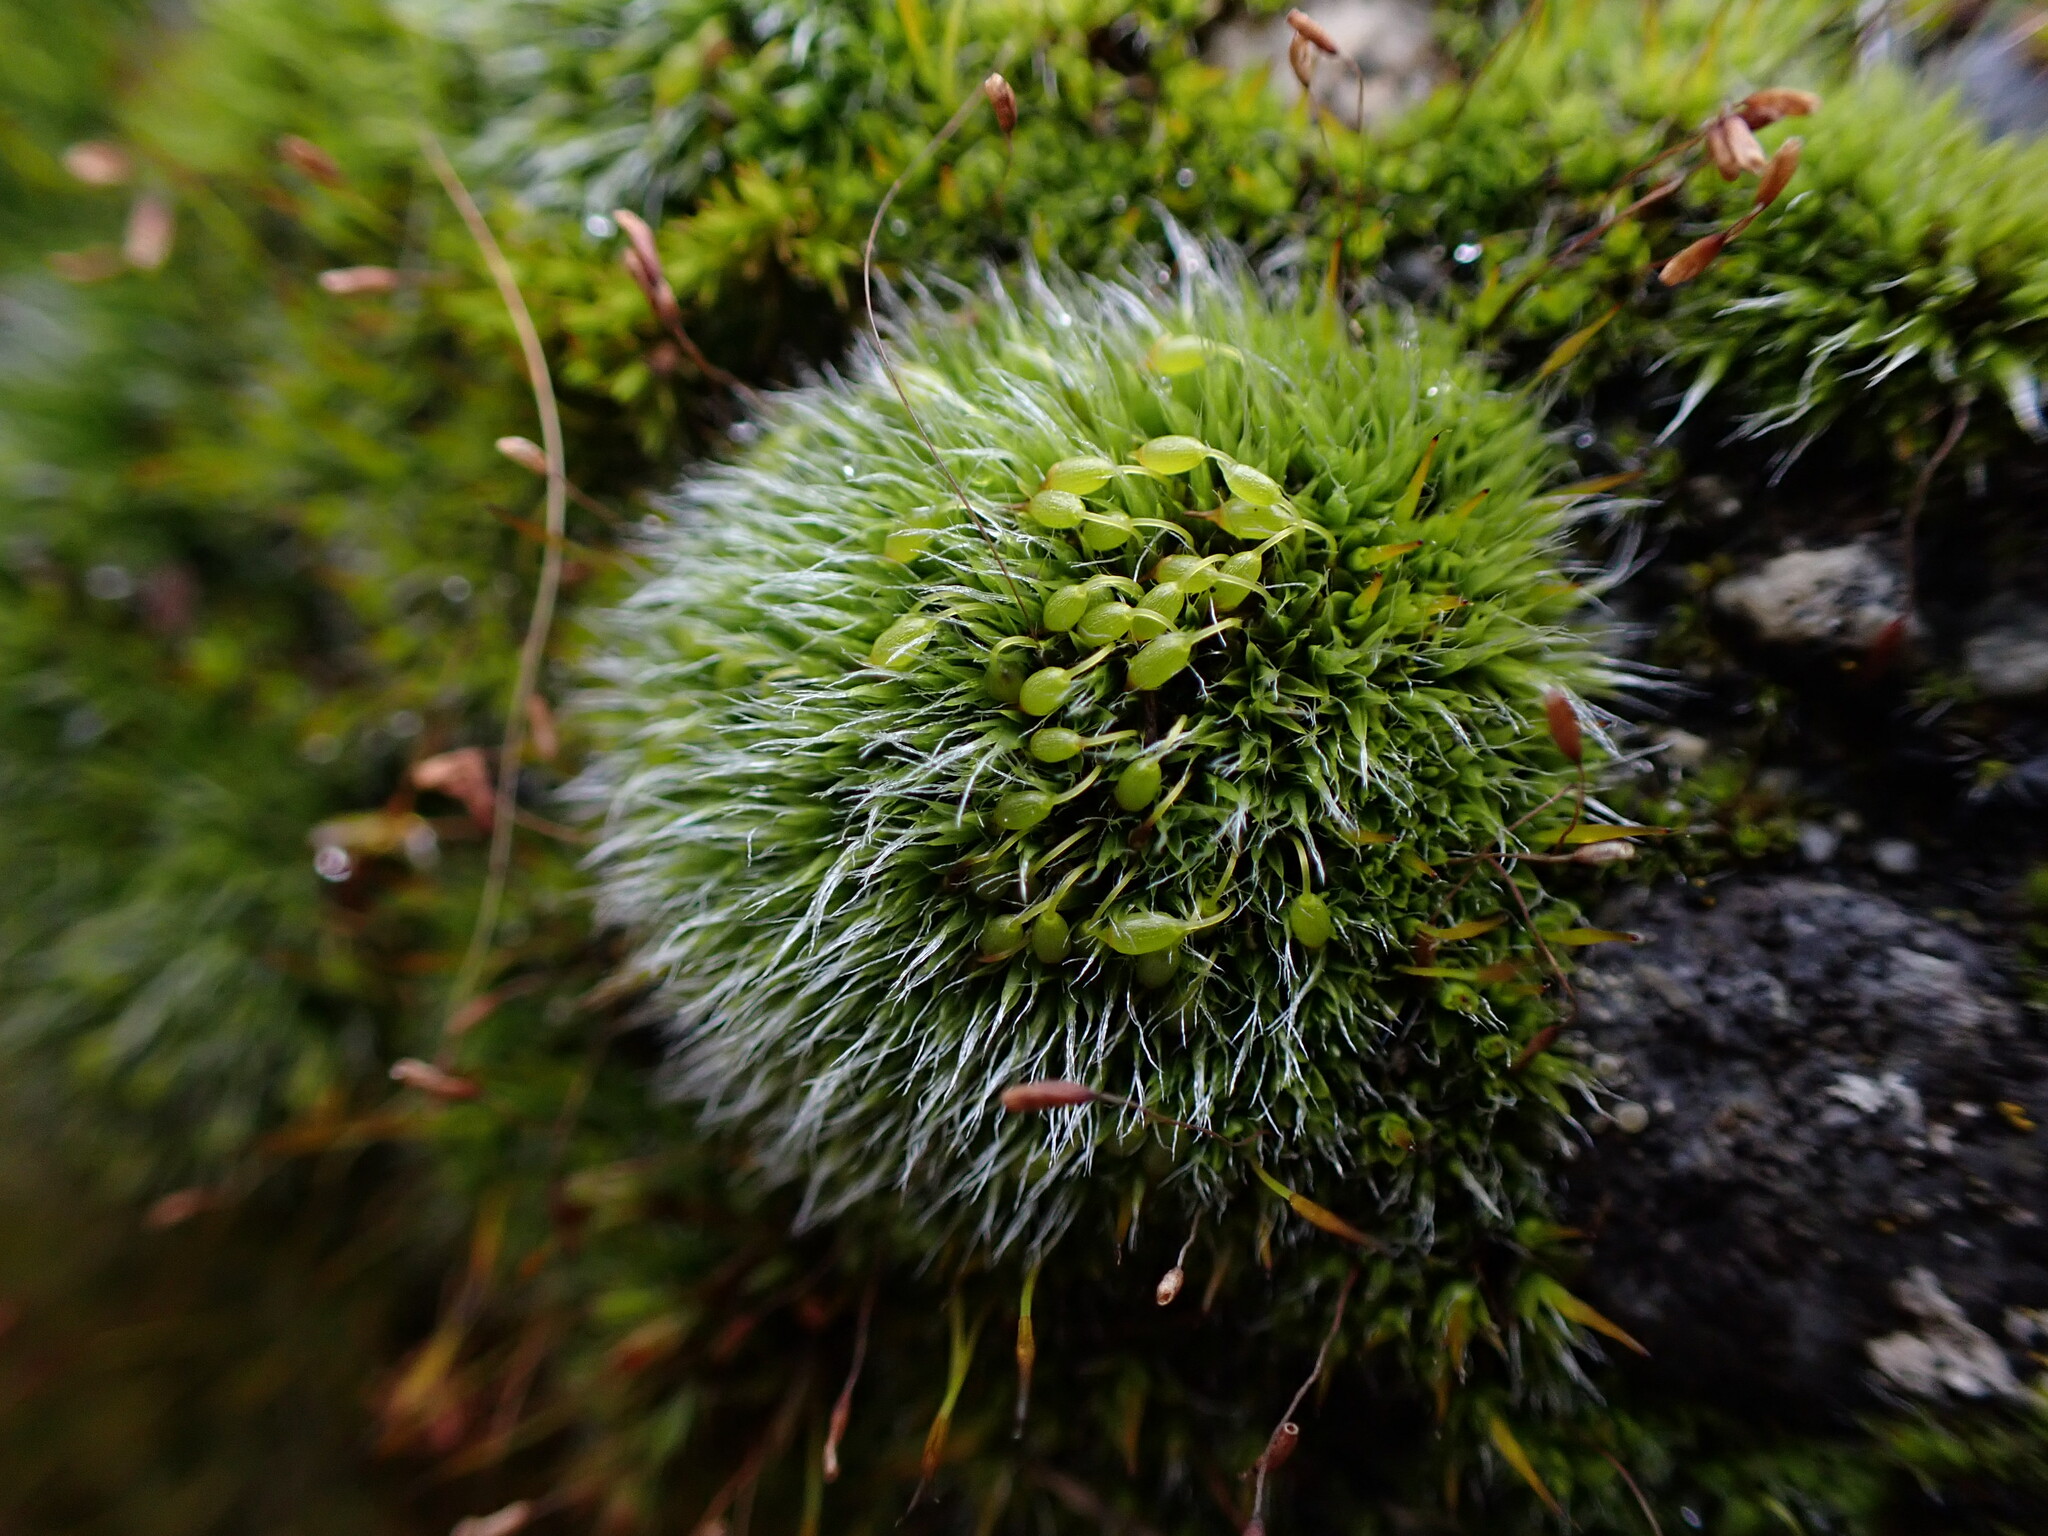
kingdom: Plantae
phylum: Bryophyta
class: Bryopsida
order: Grimmiales
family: Grimmiaceae
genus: Grimmia
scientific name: Grimmia pulvinata
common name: Grey-cushioned grimmia
